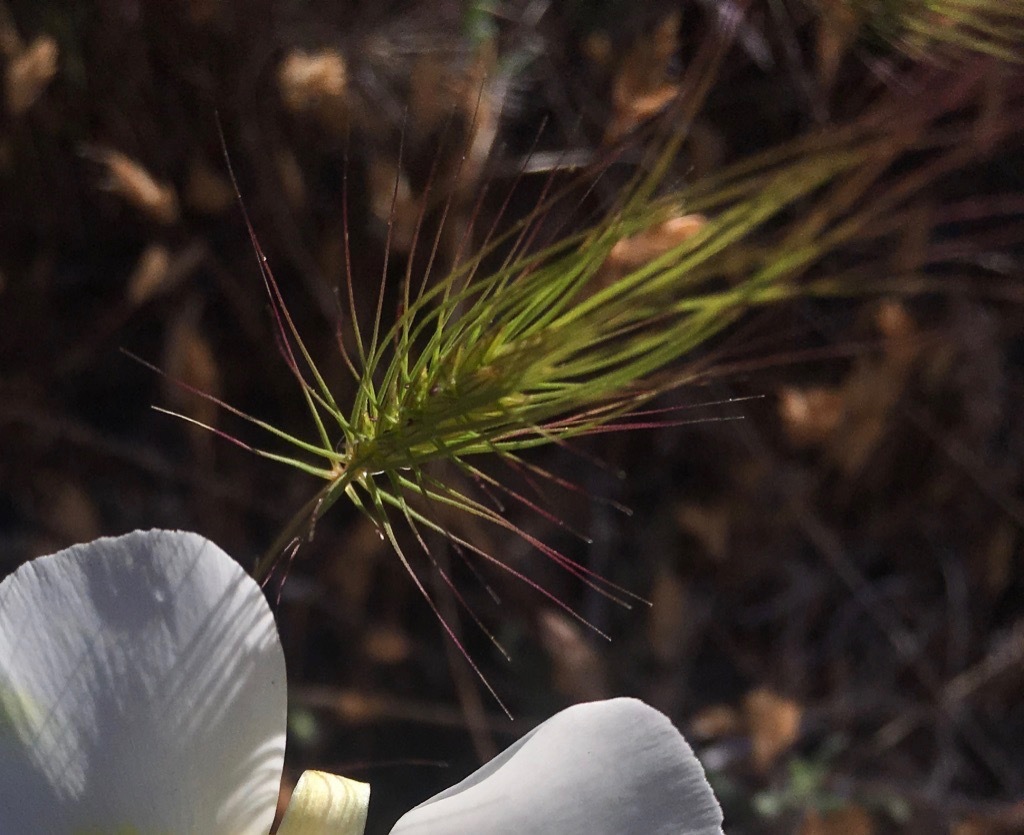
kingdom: Plantae
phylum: Tracheophyta
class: Liliopsida
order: Poales
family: Poaceae
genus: Taeniatherum
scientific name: Taeniatherum caput-medusae
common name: Medusahead
